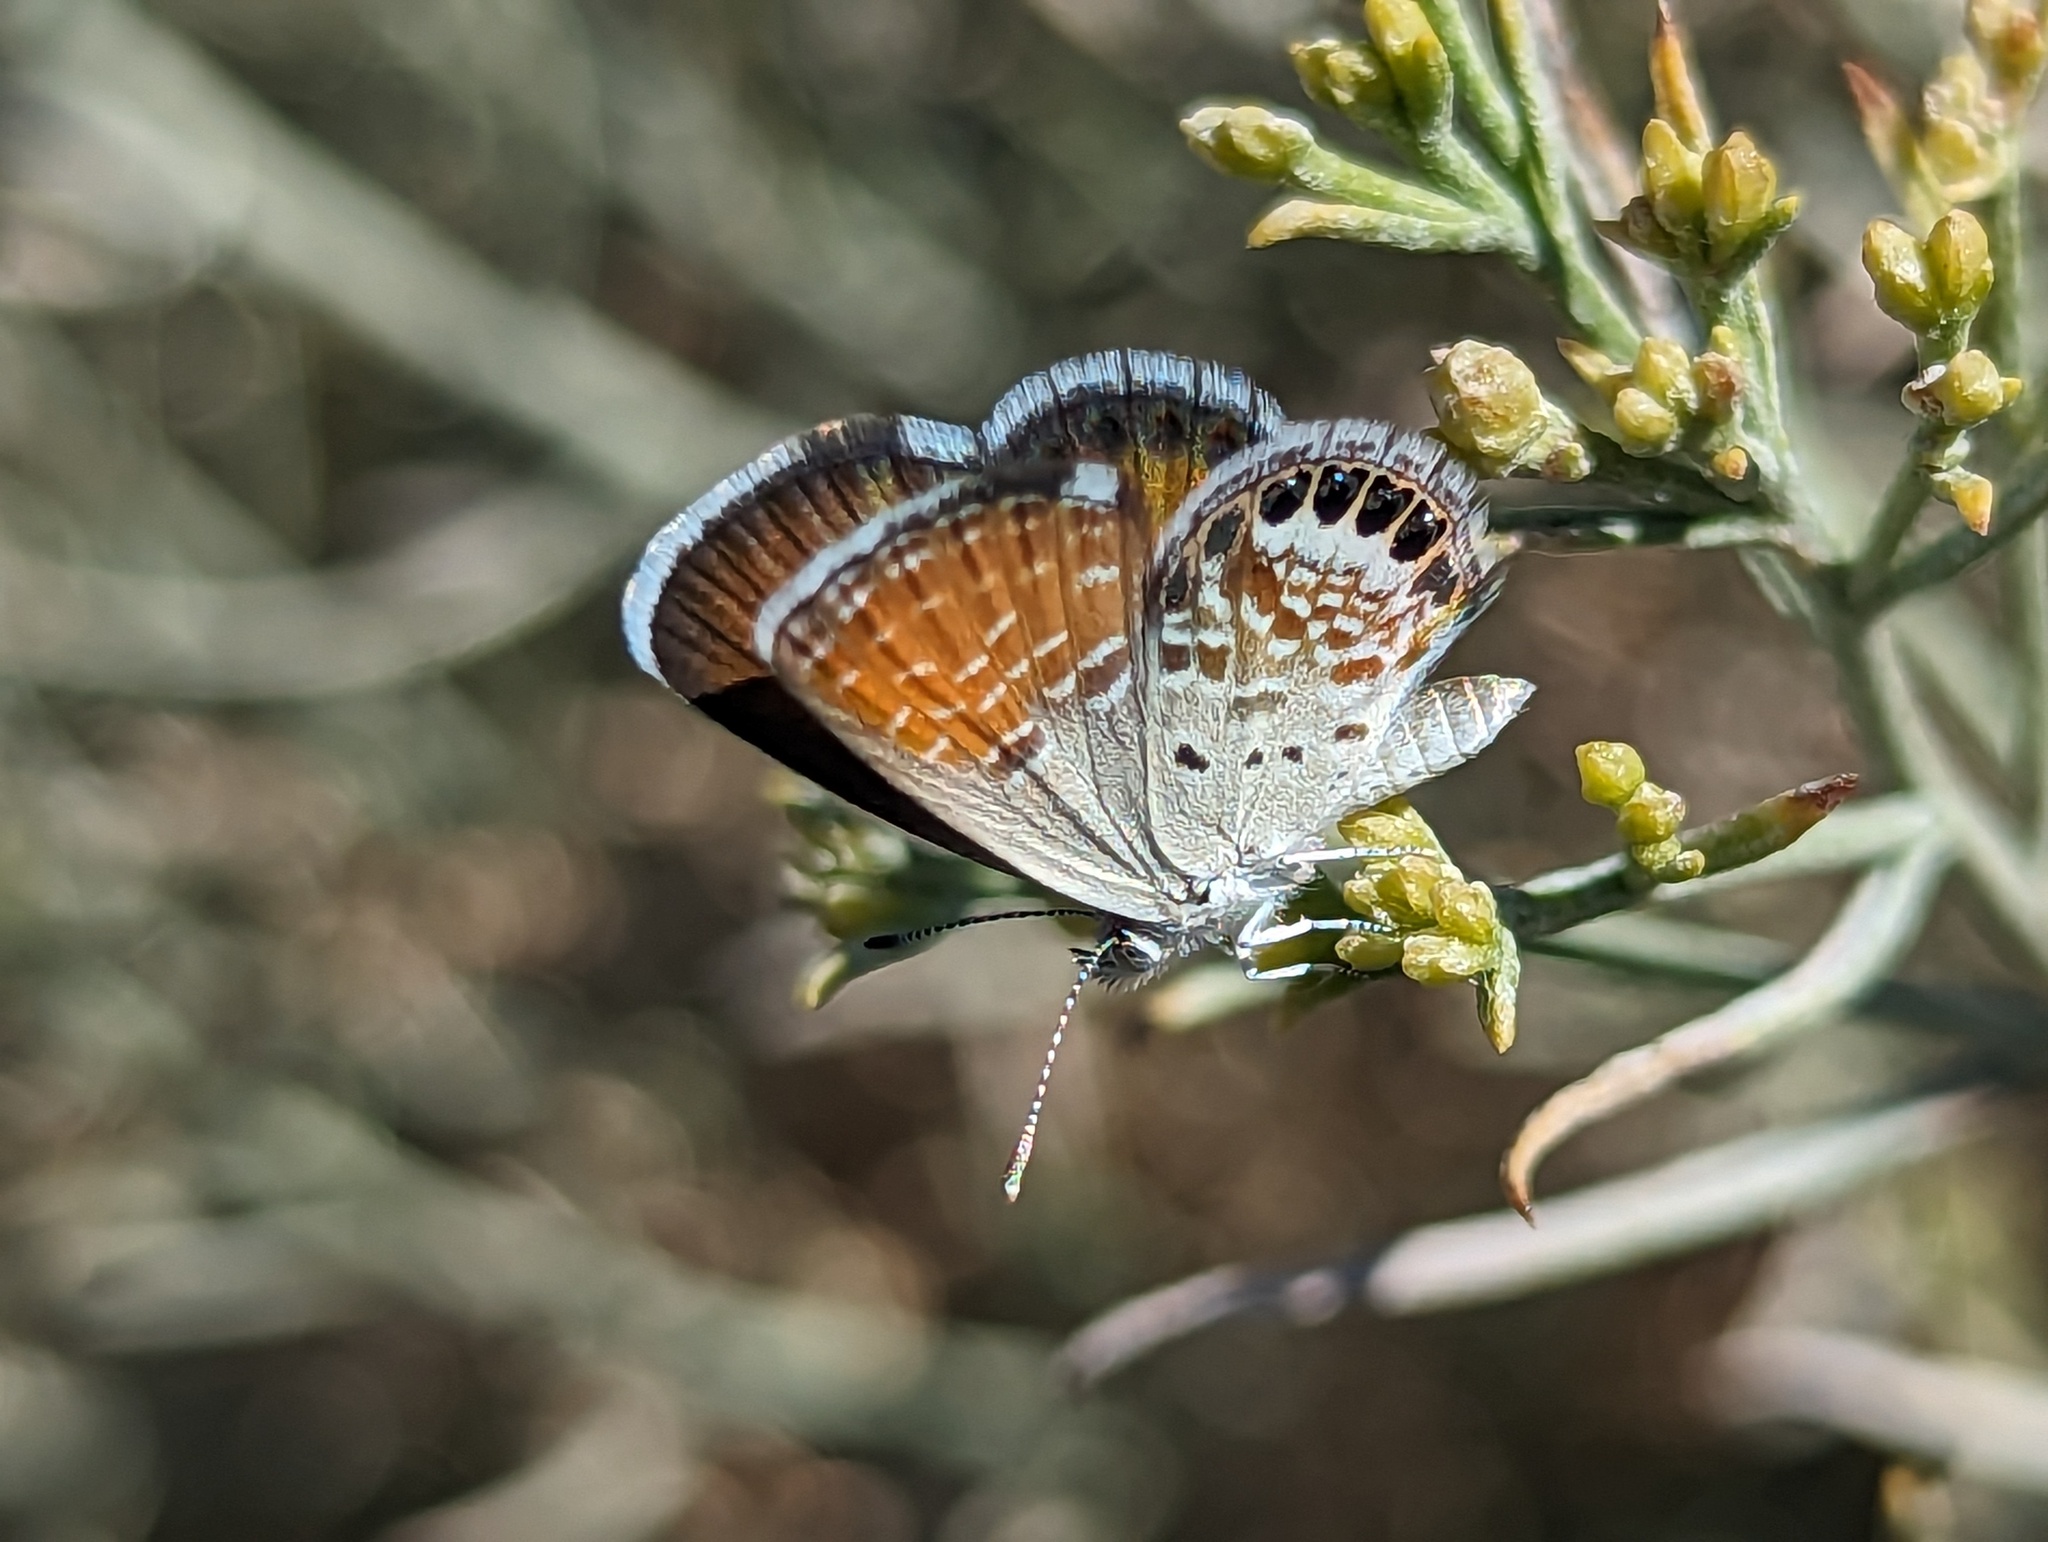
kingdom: Animalia
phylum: Arthropoda
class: Insecta
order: Lepidoptera
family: Lycaenidae
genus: Brephidium
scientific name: Brephidium exilis
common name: Pygmy blue
